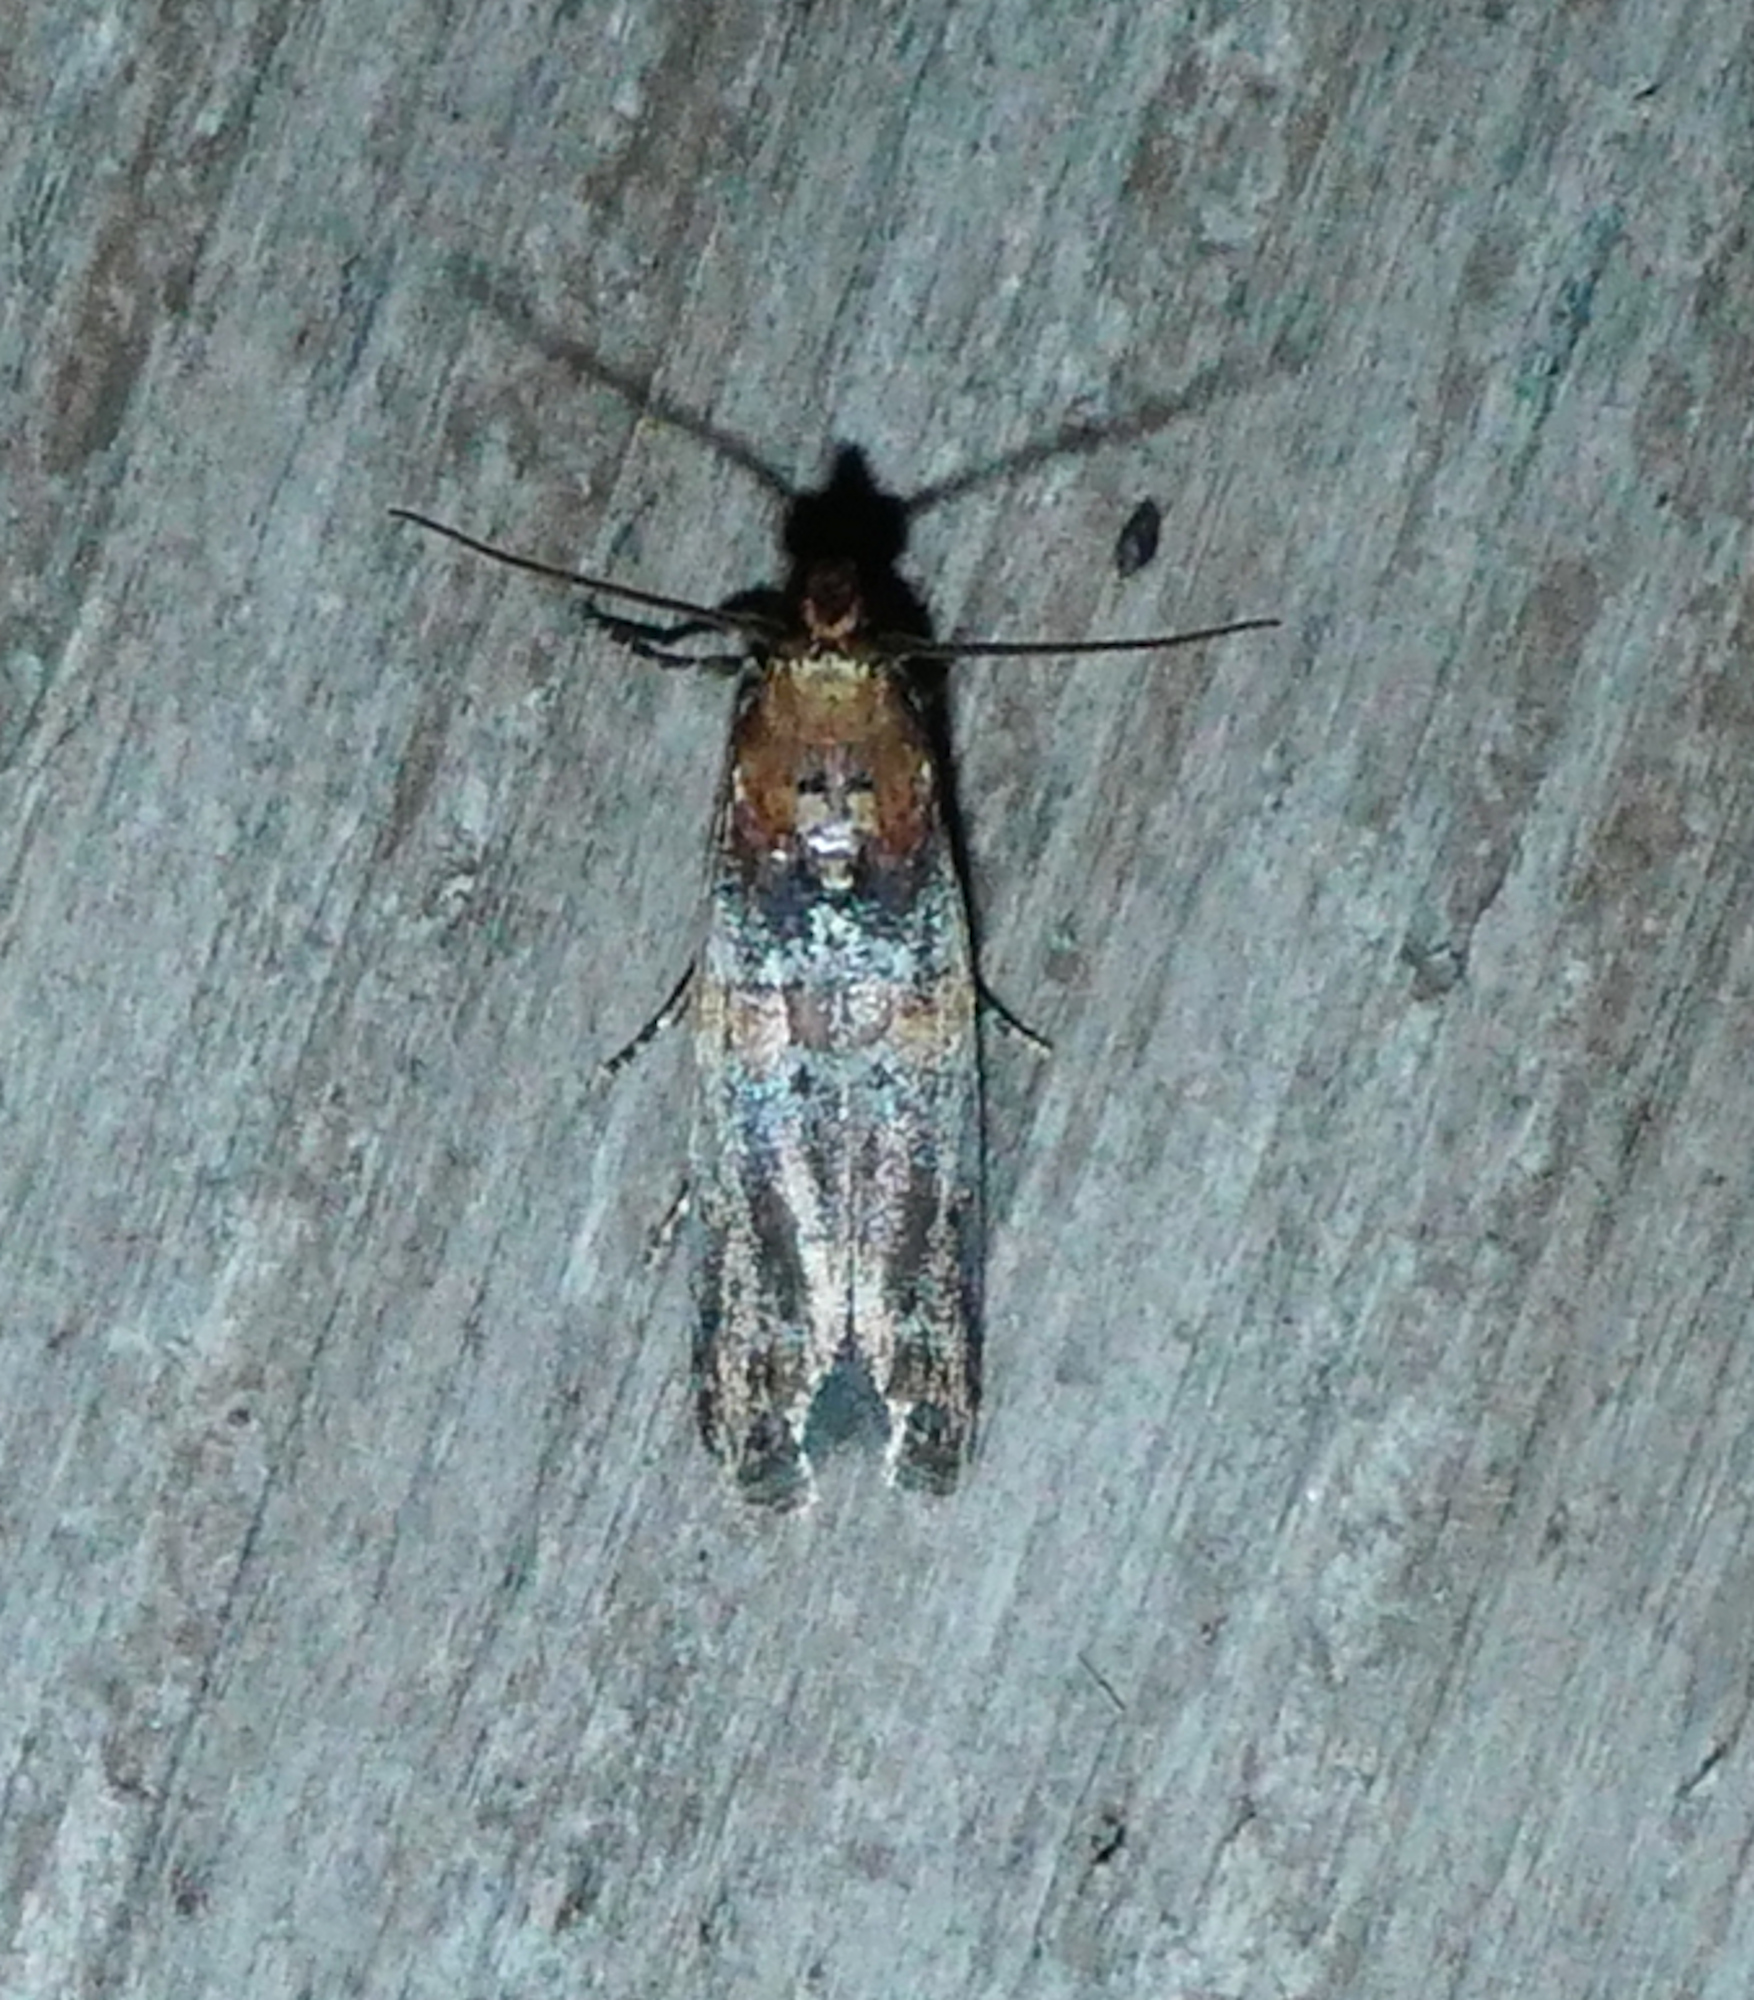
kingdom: Animalia
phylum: Arthropoda
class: Insecta
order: Lepidoptera
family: Pyralidae
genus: Adelphia
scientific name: Adelphia petrella
